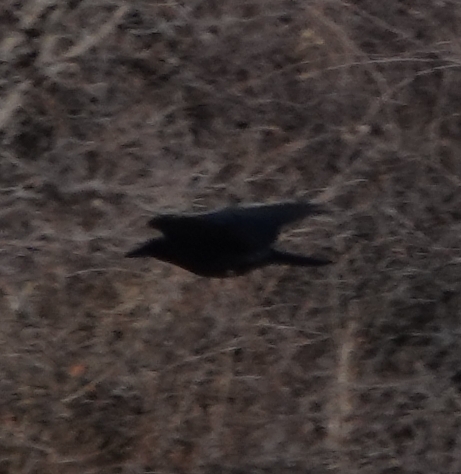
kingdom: Animalia
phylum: Chordata
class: Aves
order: Passeriformes
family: Corvidae
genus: Corvus
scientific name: Corvus corax
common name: Common raven
